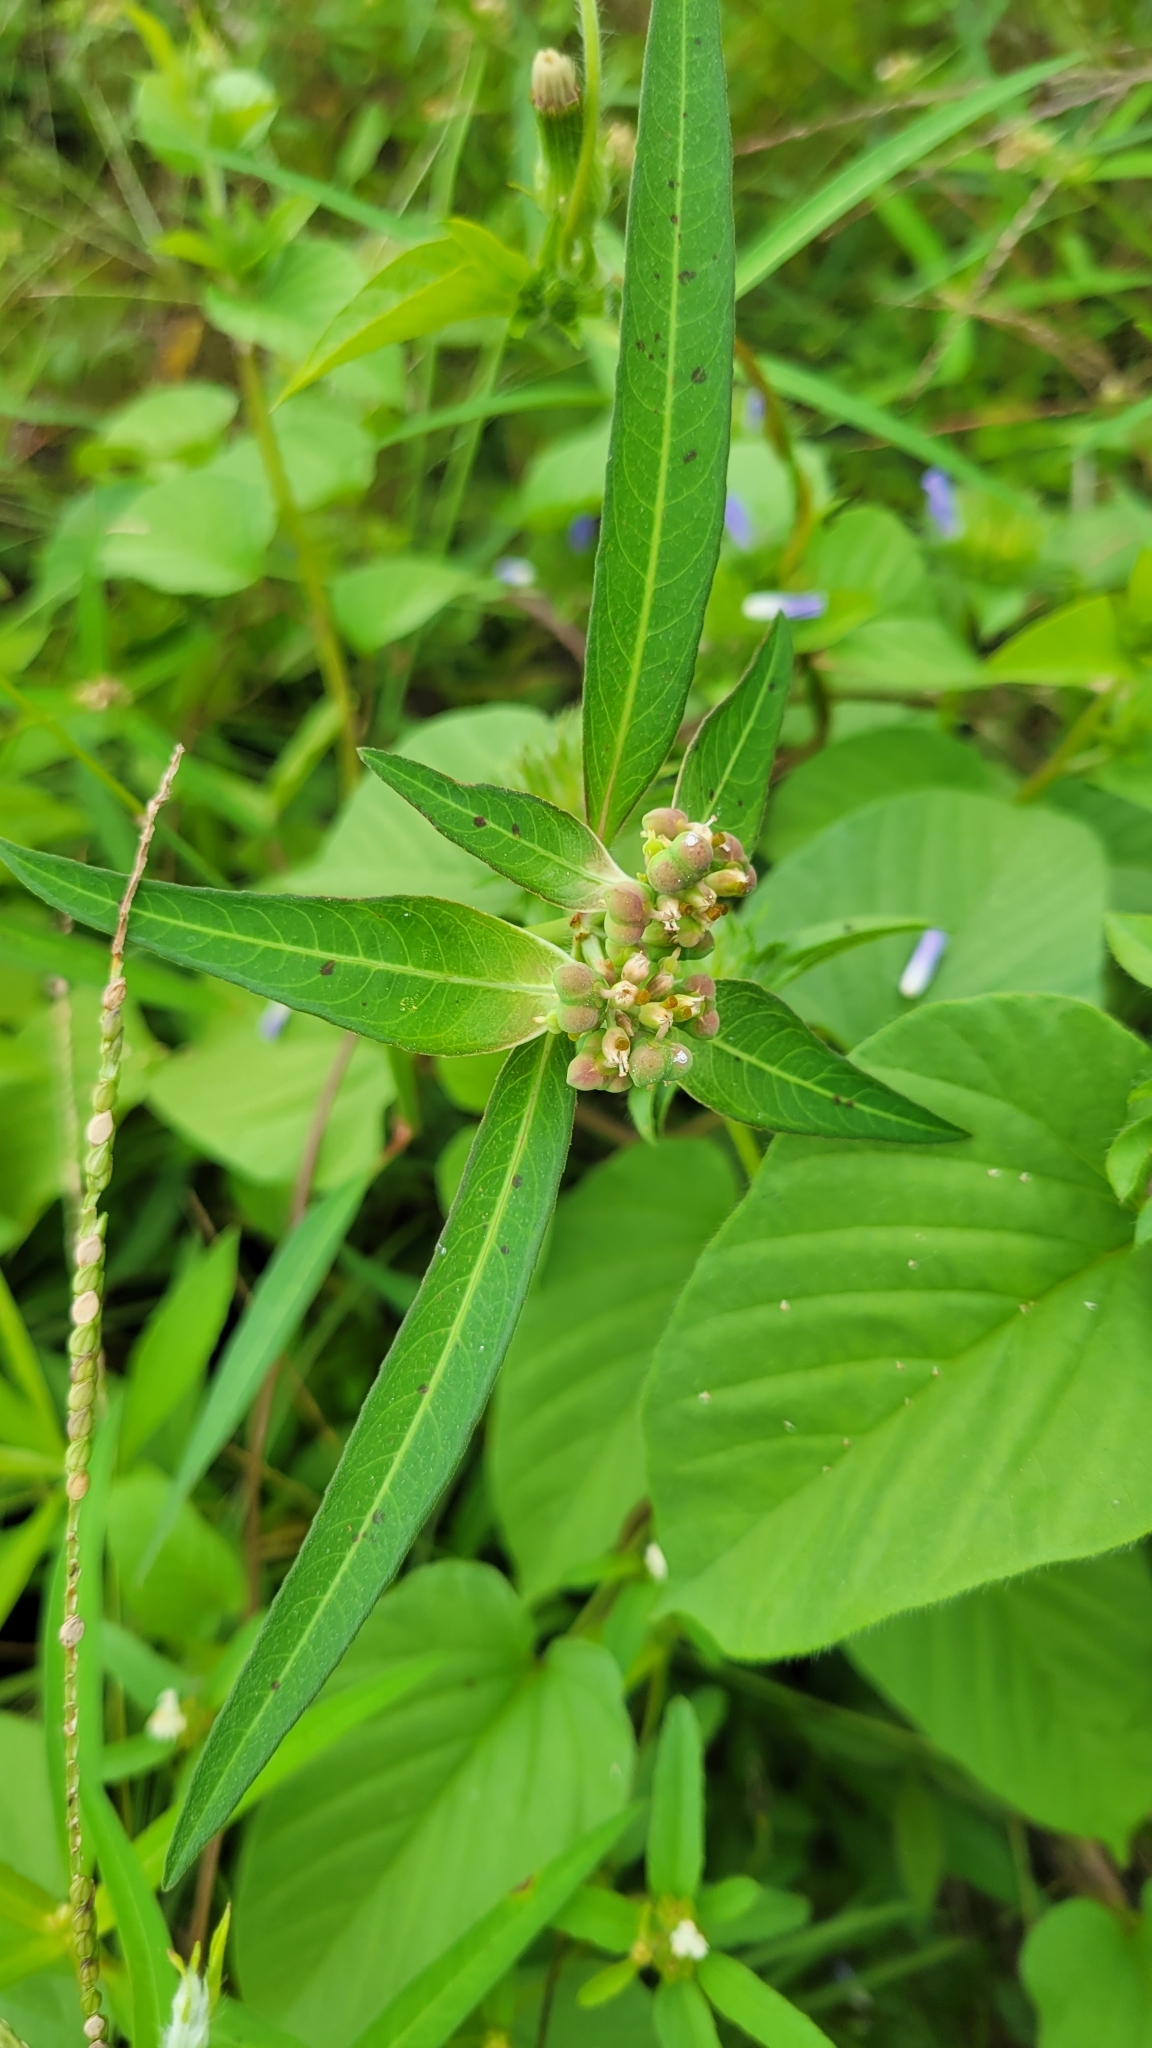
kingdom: Plantae
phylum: Tracheophyta
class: Magnoliopsida
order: Malpighiales
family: Euphorbiaceae
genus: Euphorbia
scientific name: Euphorbia heterophylla
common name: Mexican fireplant
